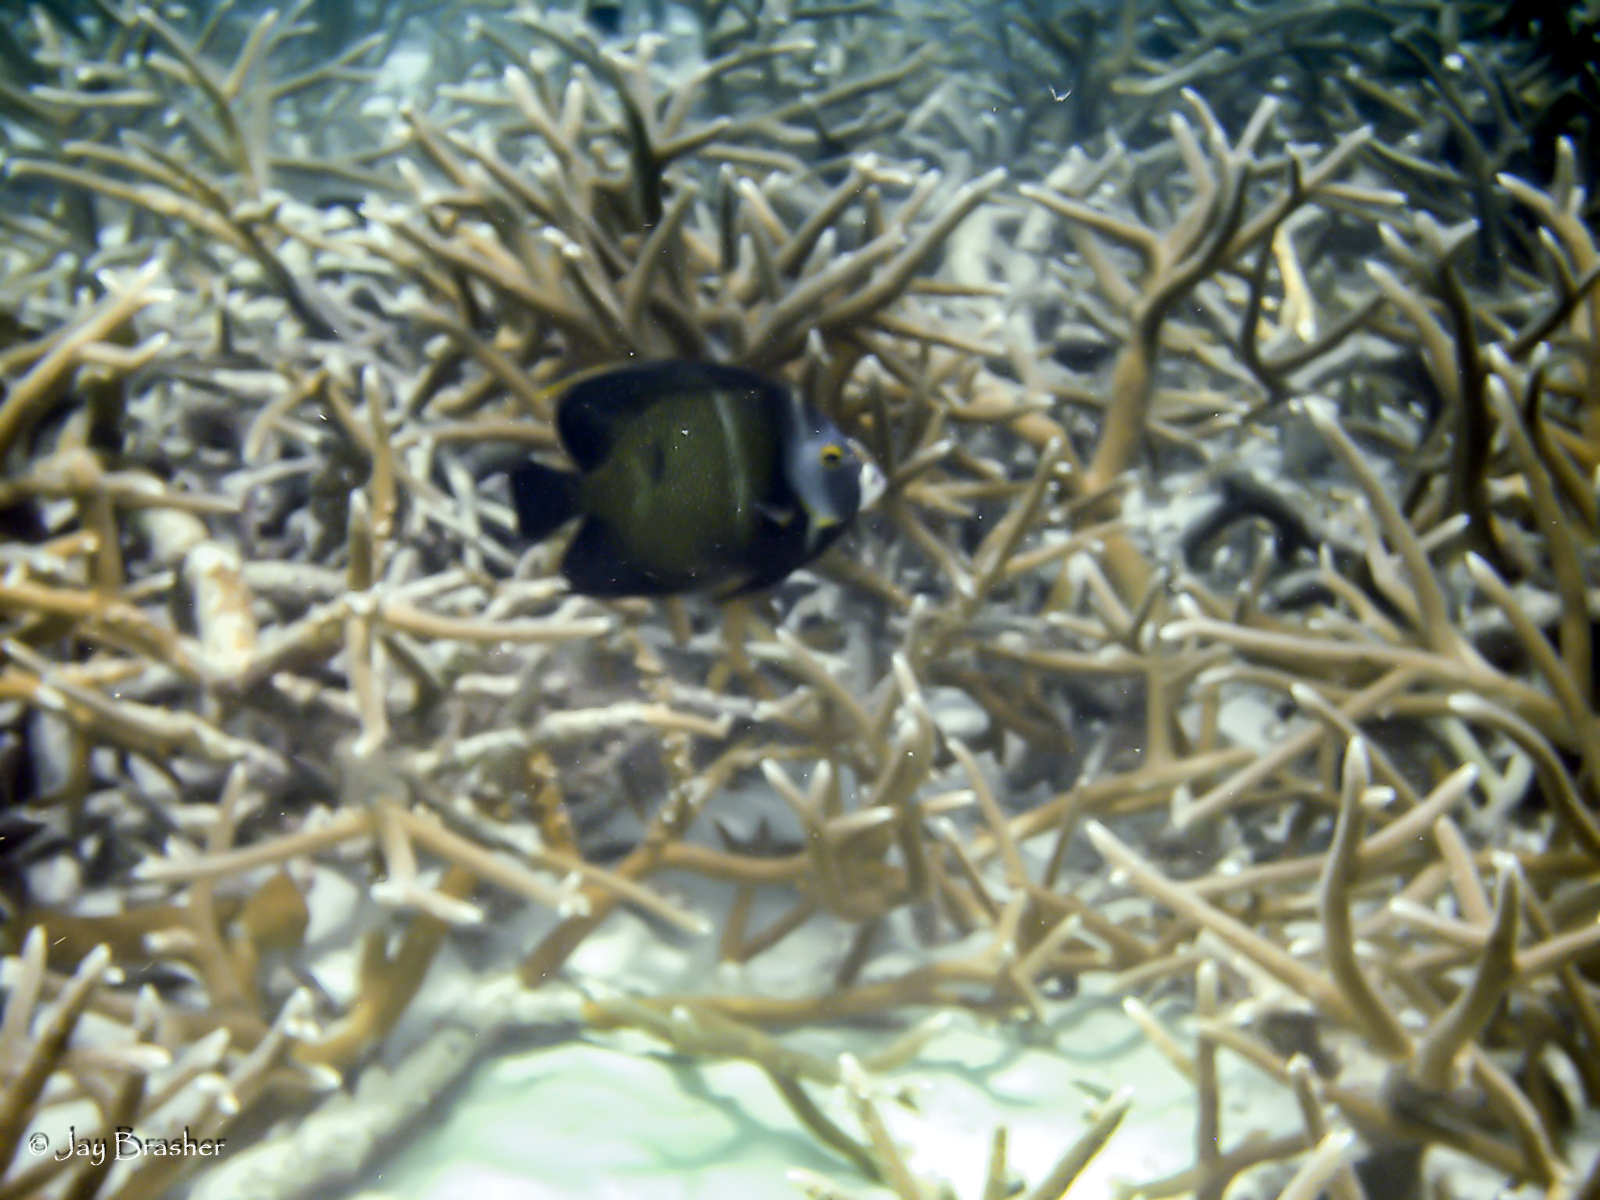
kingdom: Animalia
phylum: Chordata
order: Perciformes
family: Pomacanthidae
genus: Pomacanthus
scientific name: Pomacanthus paru
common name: French angelfish
